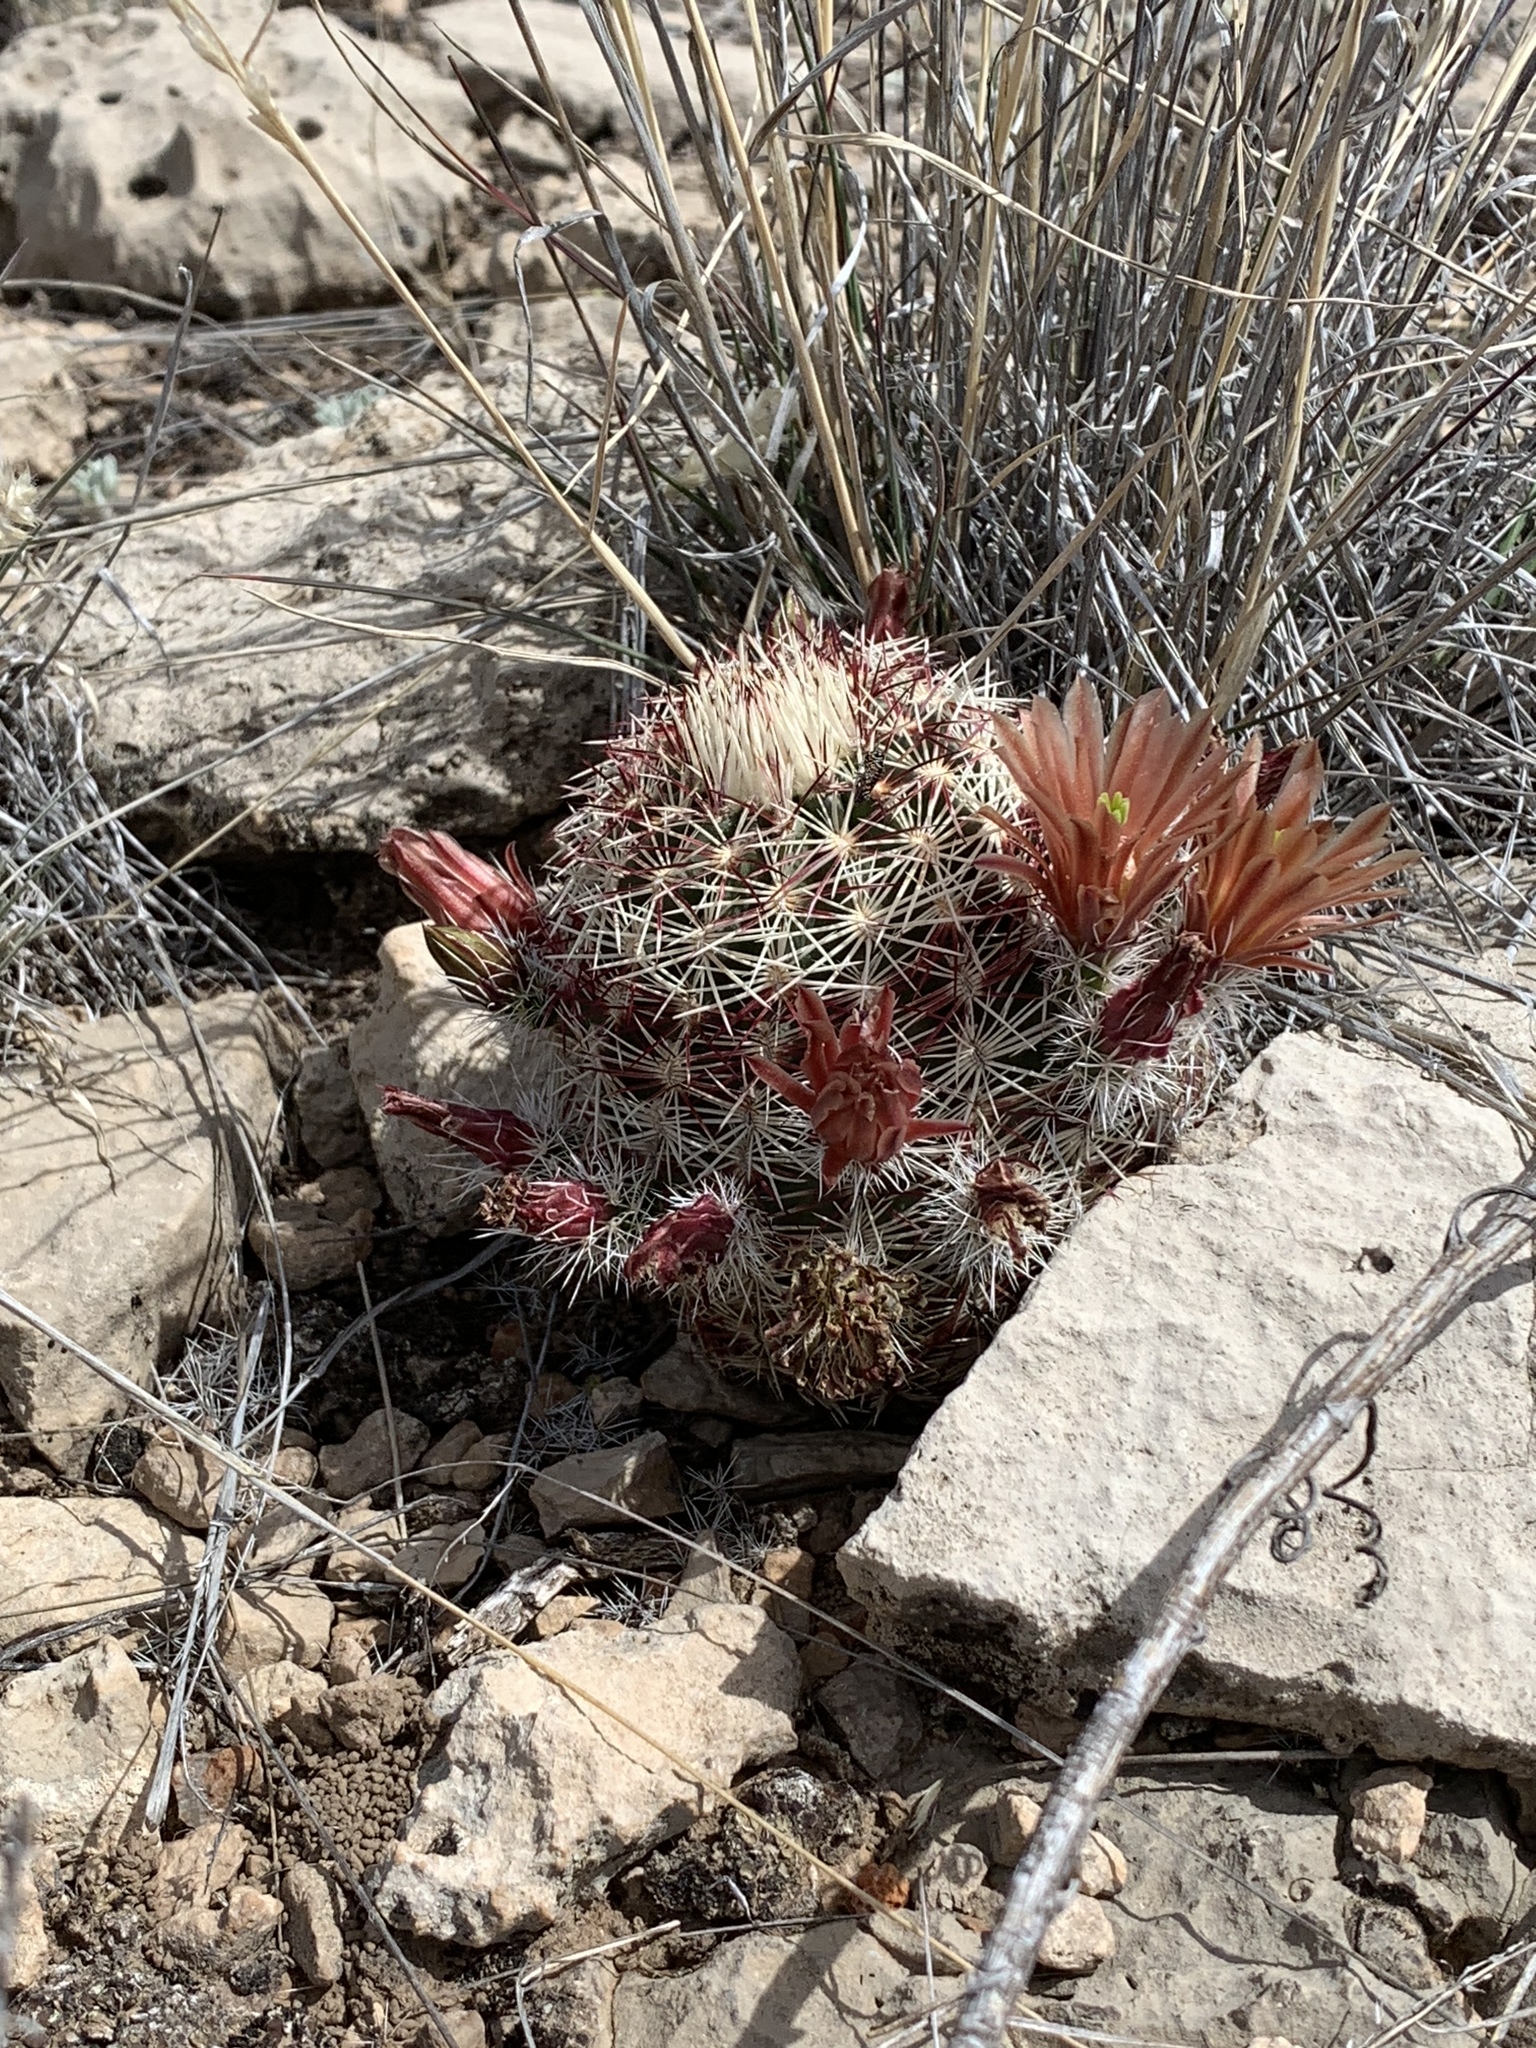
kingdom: Plantae
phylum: Tracheophyta
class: Magnoliopsida
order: Caryophyllales
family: Cactaceae
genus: Echinocereus
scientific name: Echinocereus viridiflorus
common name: Nylon hedgehog cactus
